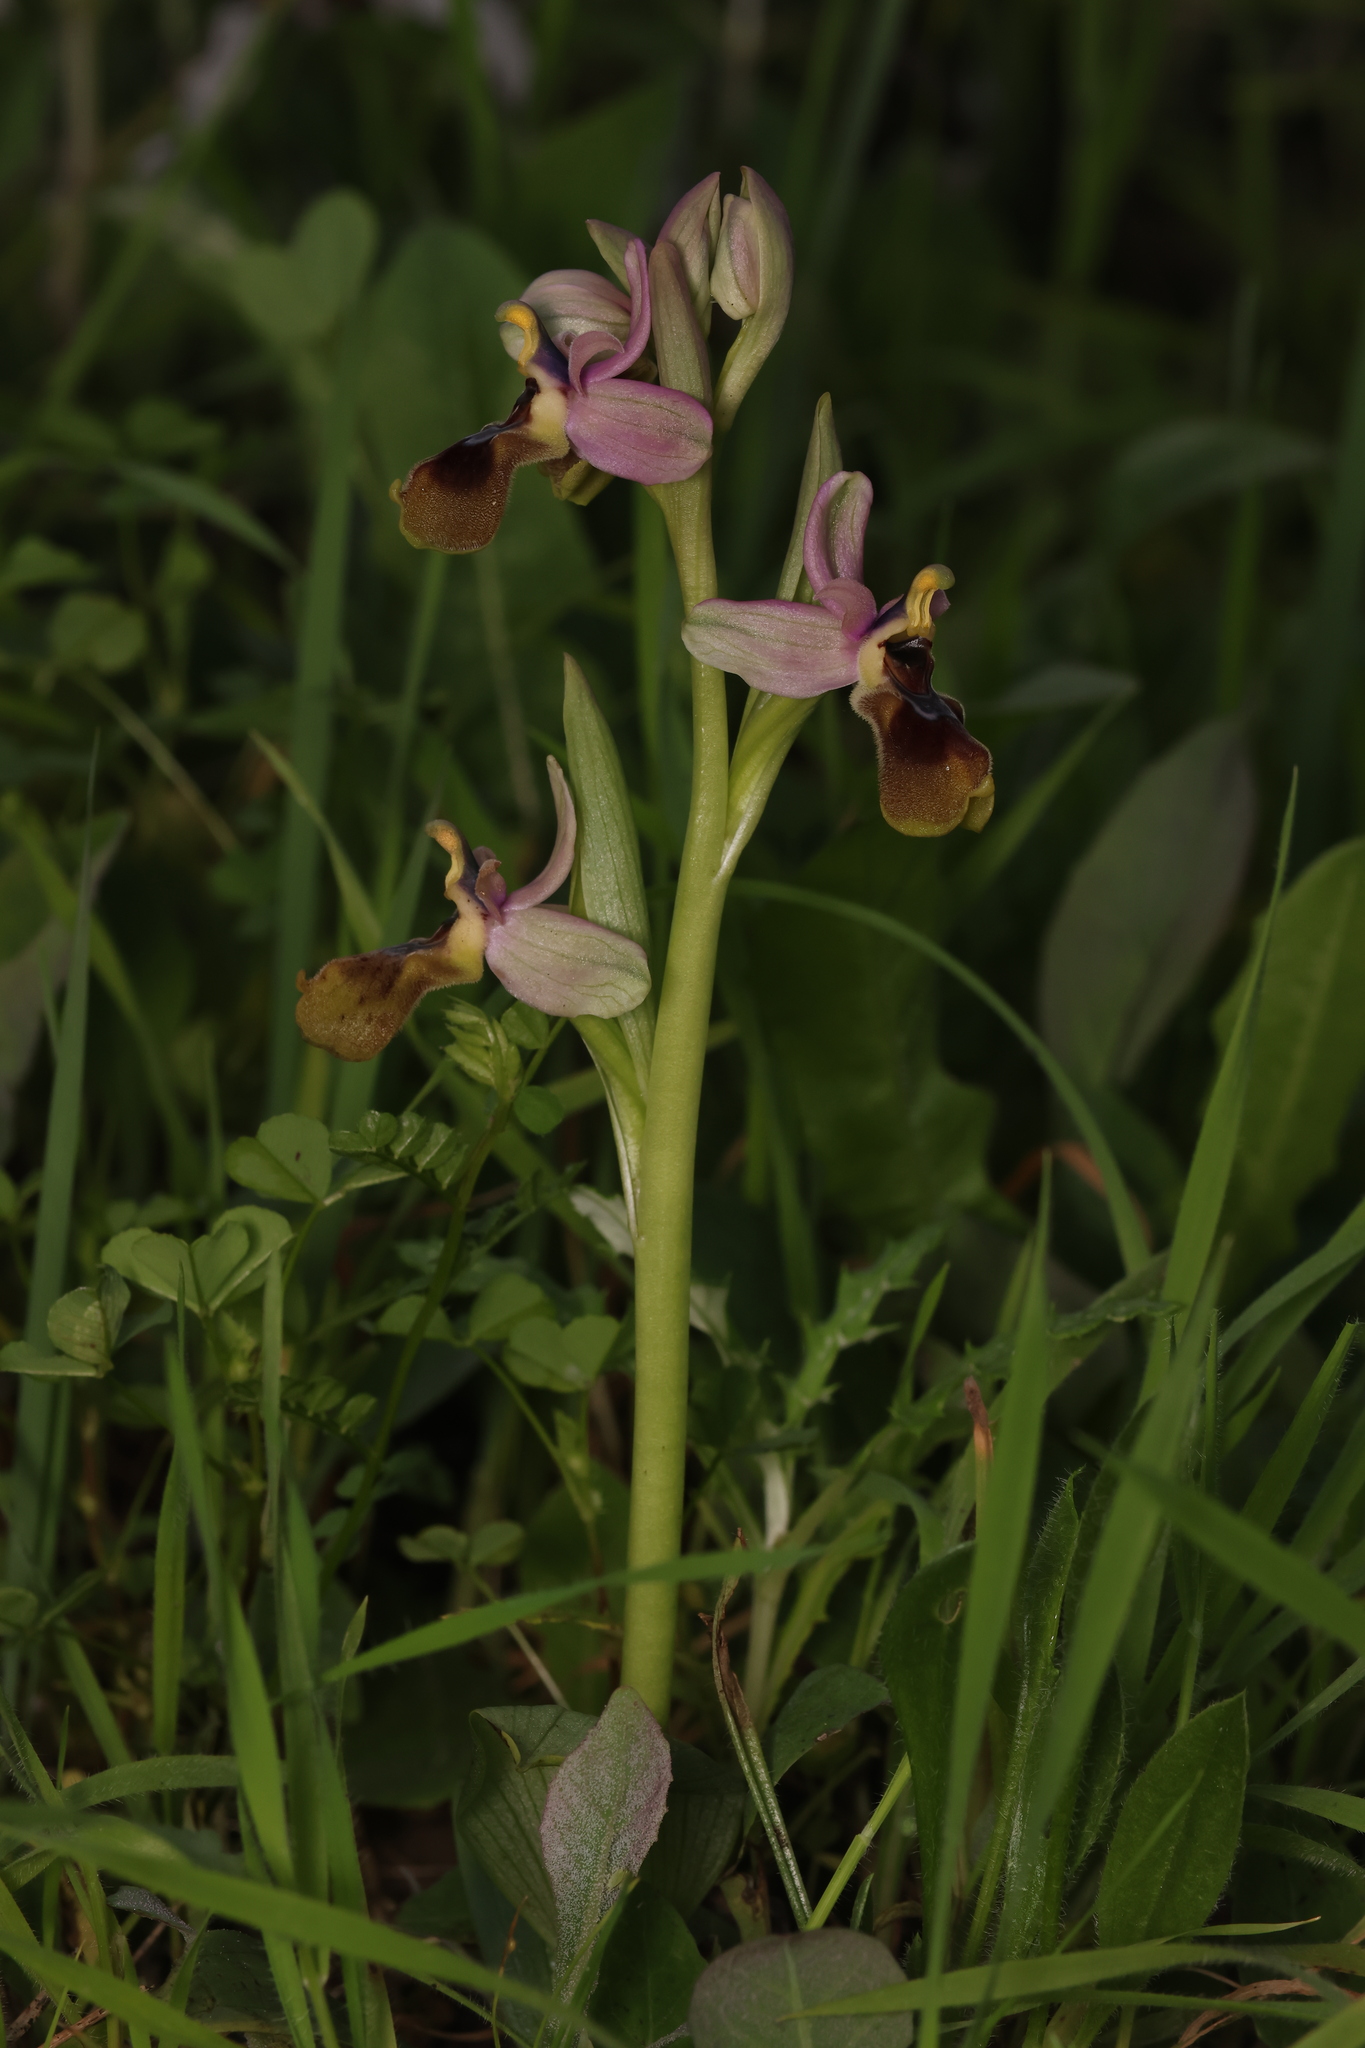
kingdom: Plantae
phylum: Tracheophyta
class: Liliopsida
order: Asparagales
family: Orchidaceae
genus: Ophrys
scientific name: Ophrys tenthredinifera
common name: Sawfly orchid
